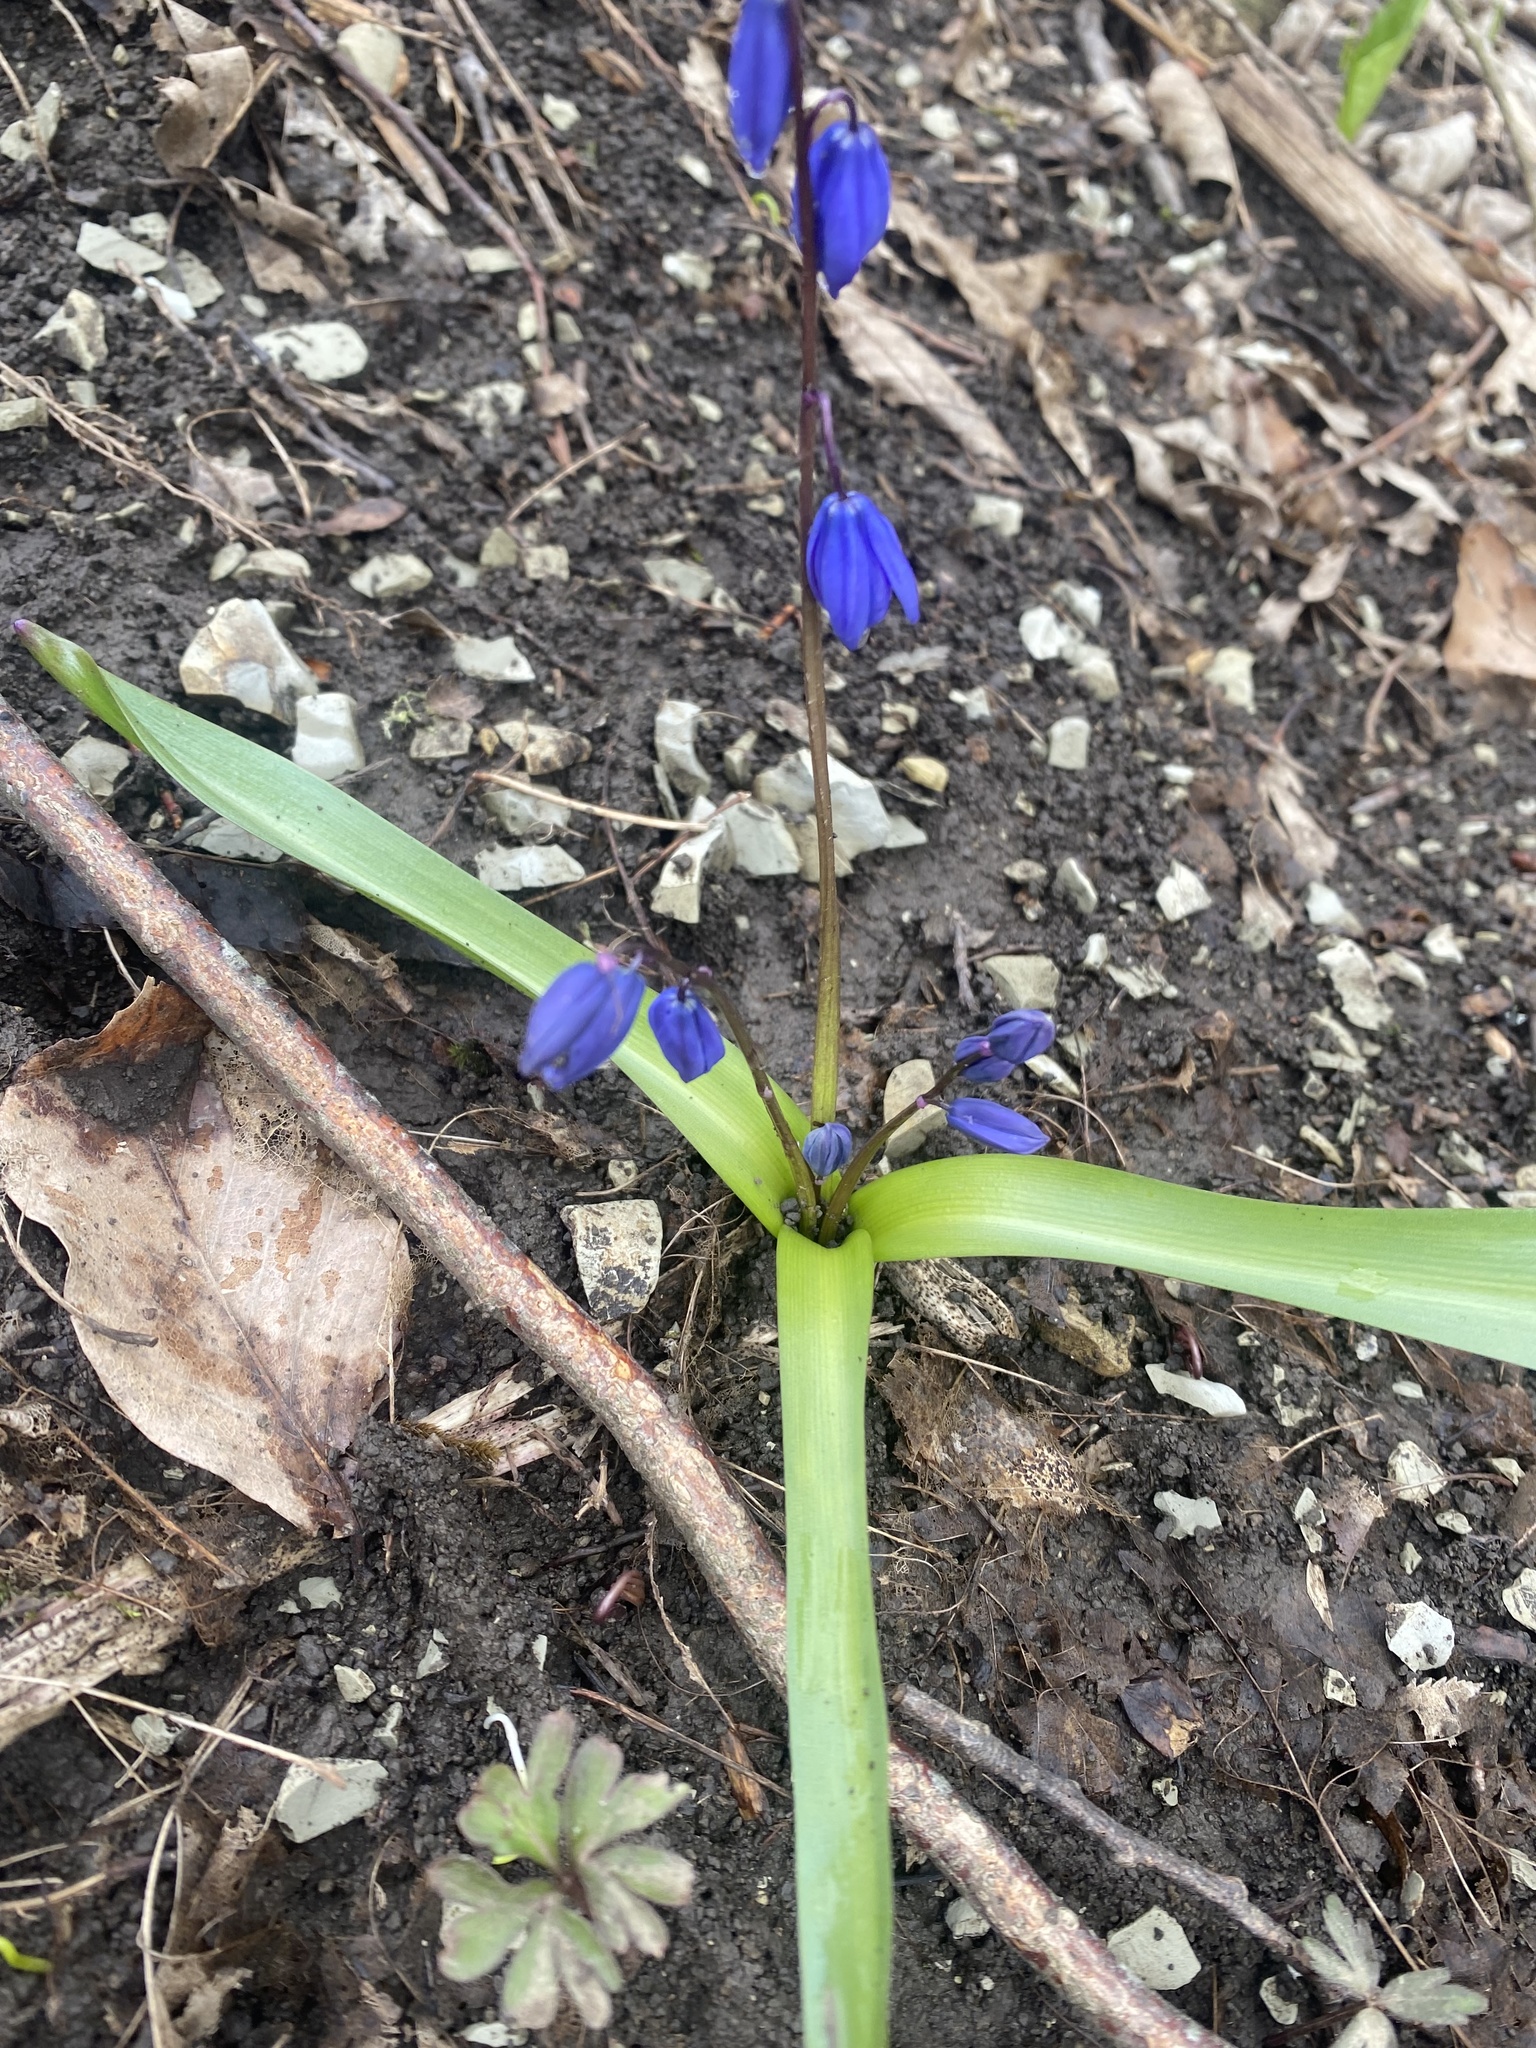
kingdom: Plantae
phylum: Tracheophyta
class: Liliopsida
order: Asparagales
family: Asparagaceae
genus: Scilla
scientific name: Scilla siberica
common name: Siberian squill
